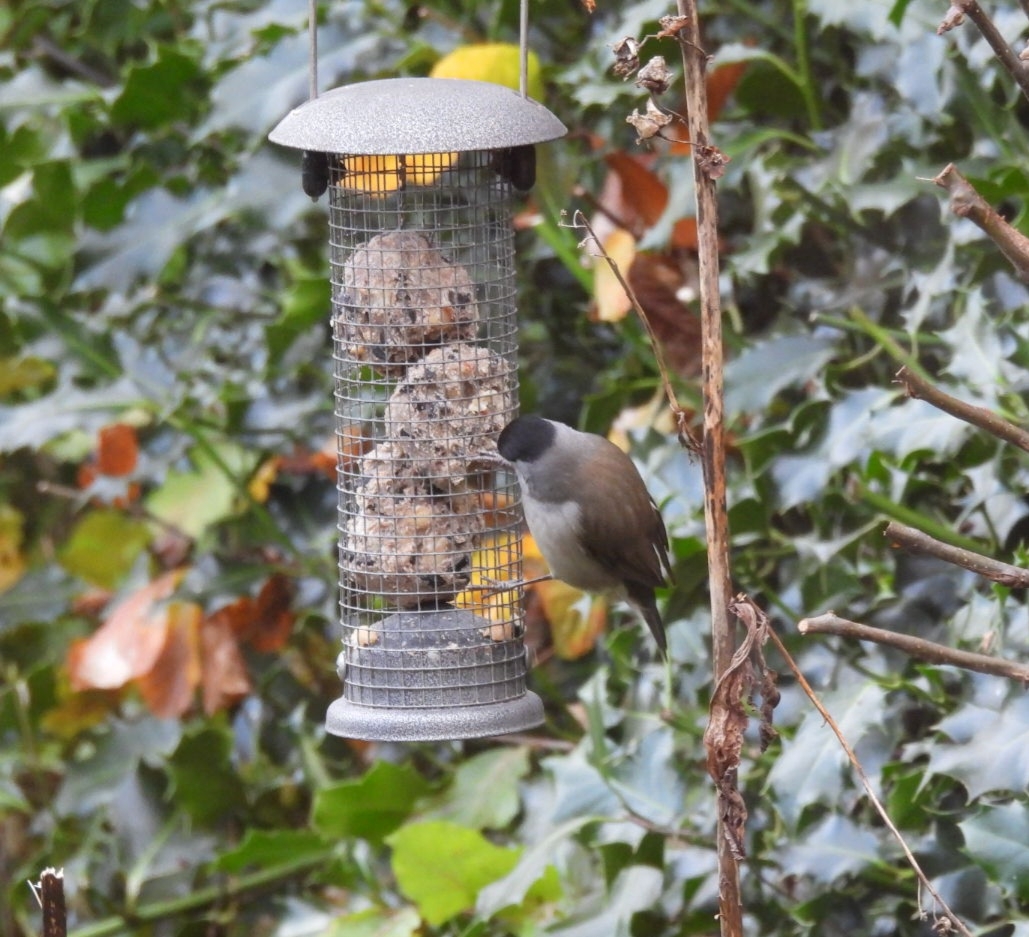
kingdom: Animalia
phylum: Chordata
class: Aves
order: Passeriformes
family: Sylviidae
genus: Sylvia
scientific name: Sylvia atricapilla
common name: Eurasian blackcap
